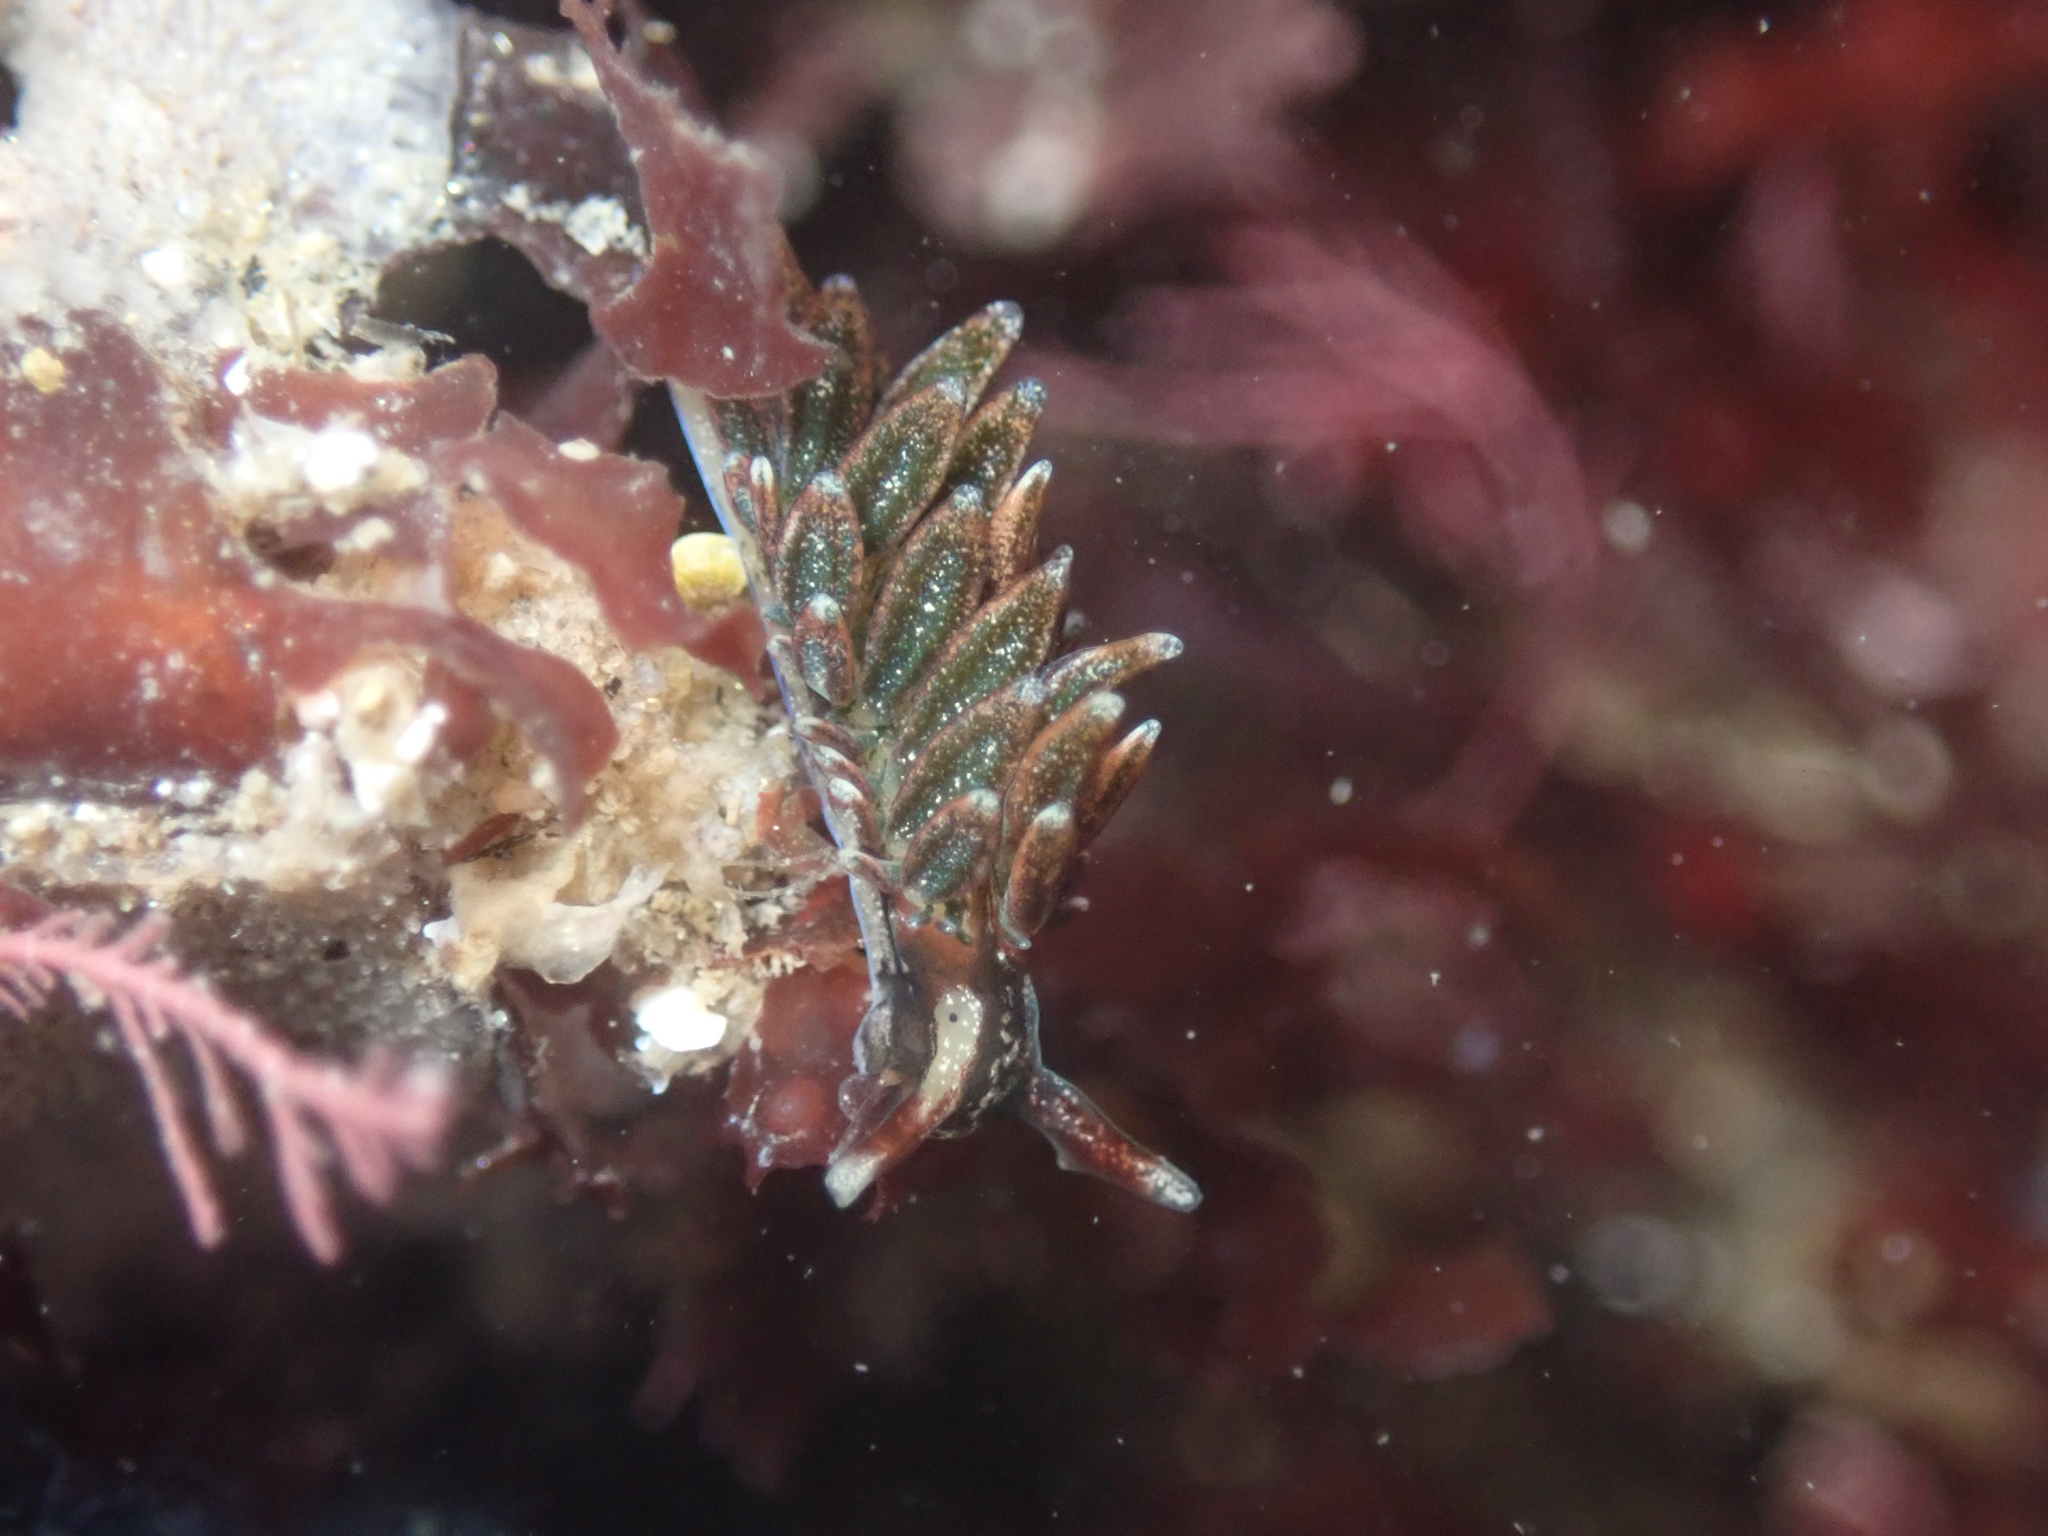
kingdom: Animalia
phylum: Mollusca
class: Gastropoda
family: Hermaeidae
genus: Aplysiopsis
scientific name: Aplysiopsis enteromorphae
